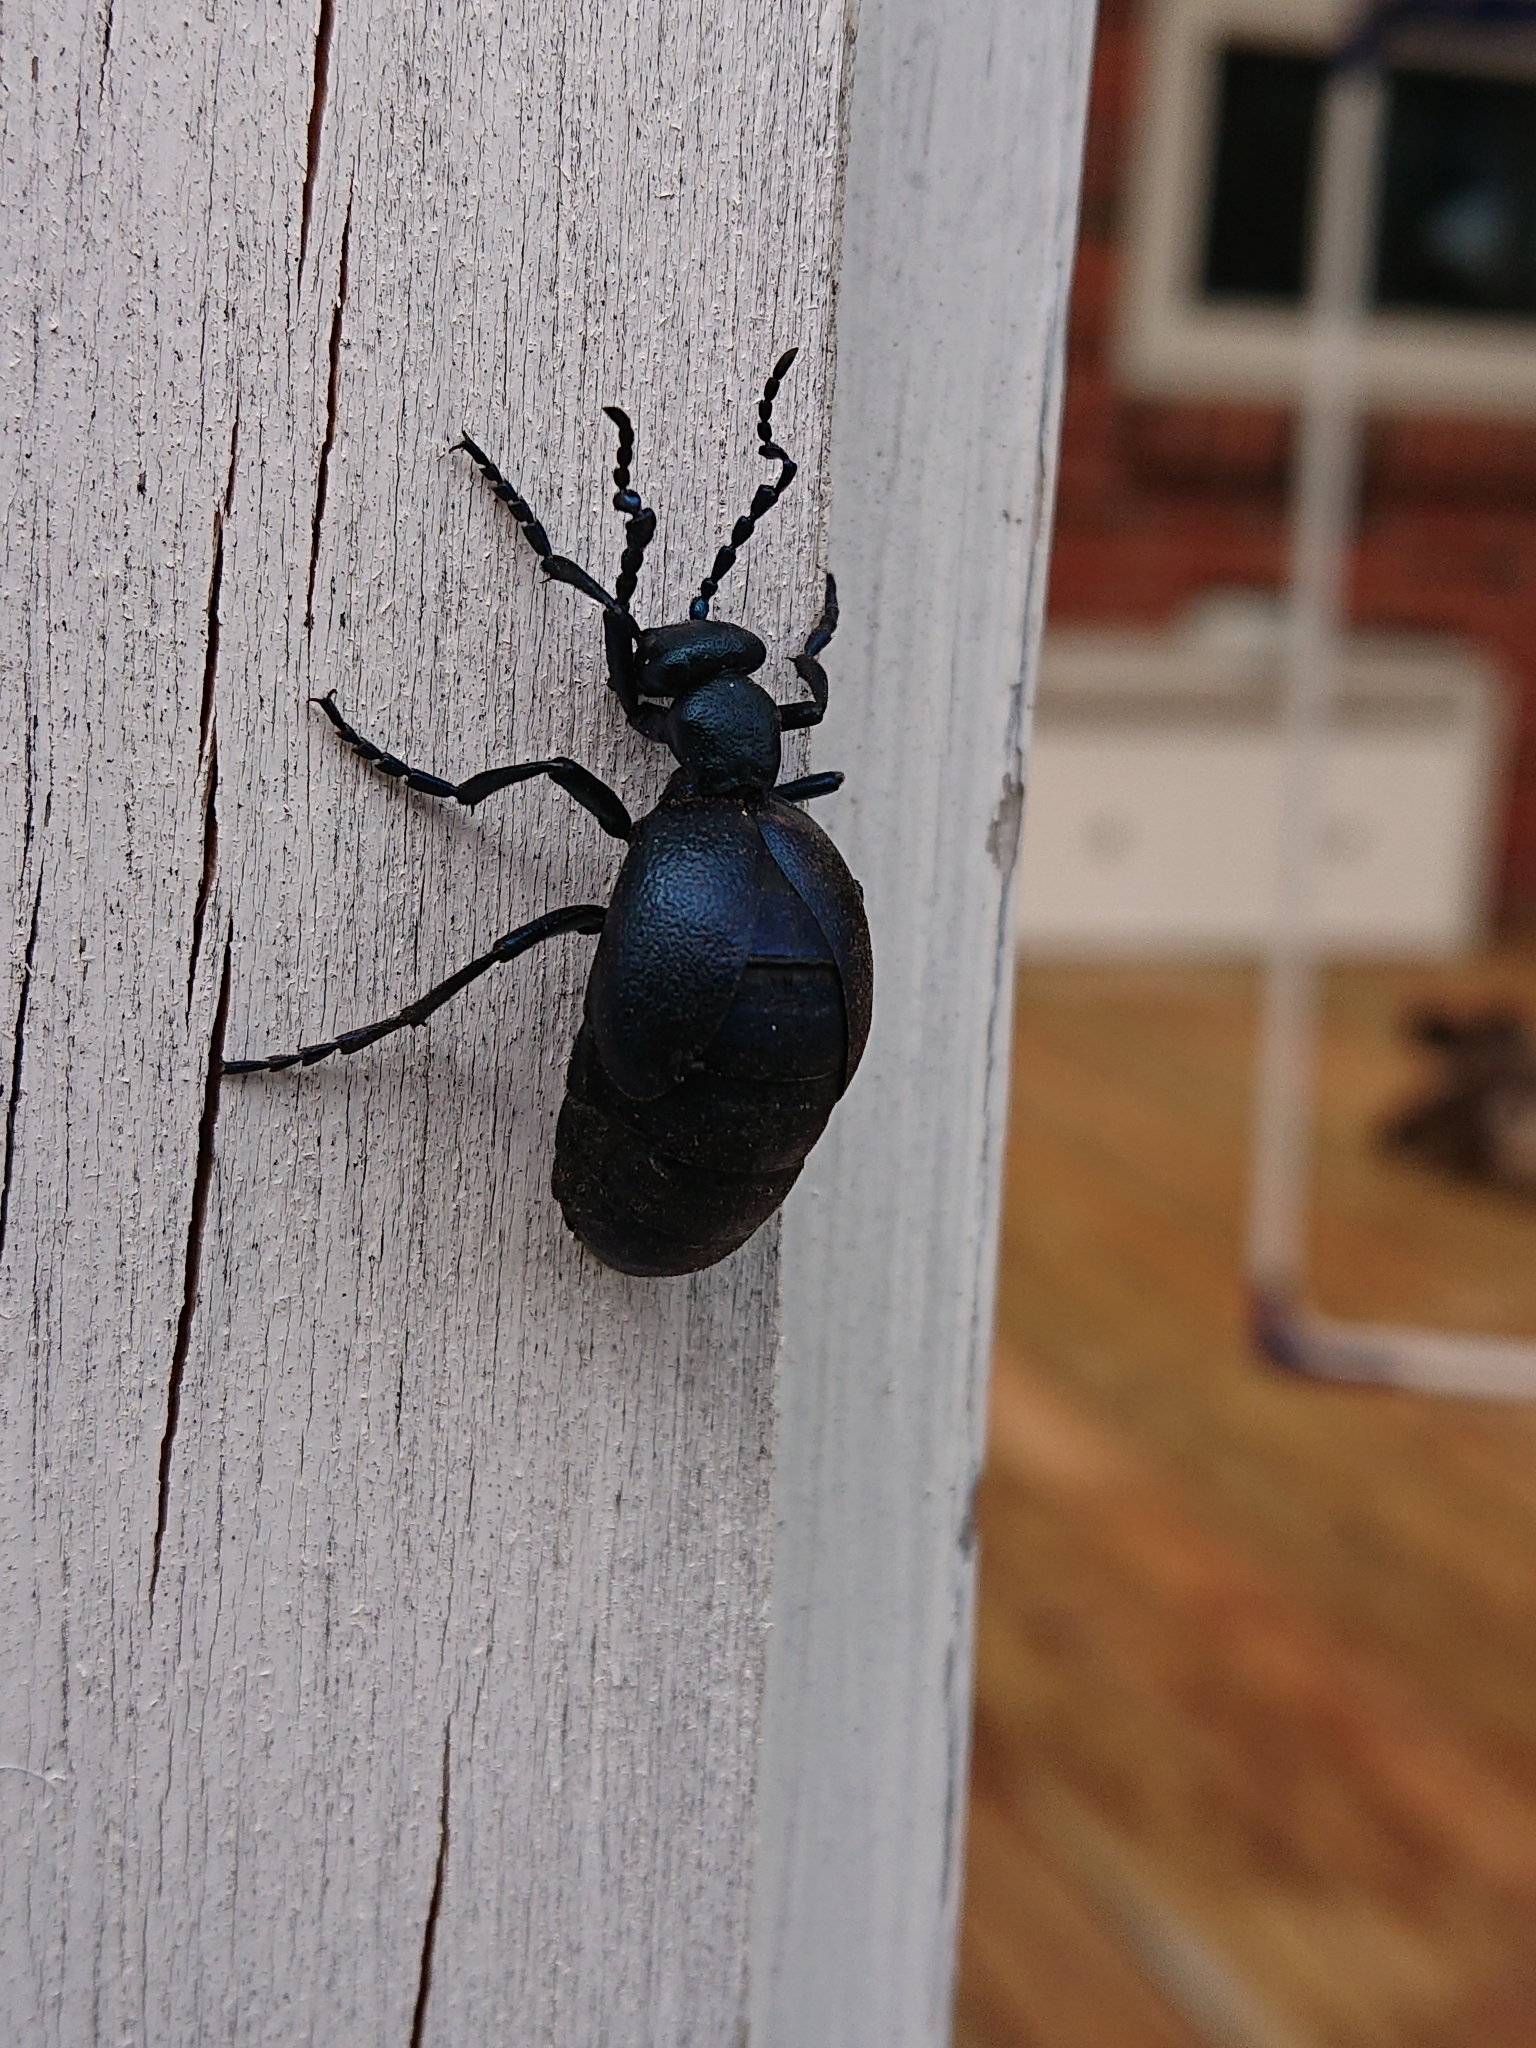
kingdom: Animalia
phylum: Arthropoda
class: Insecta
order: Coleoptera
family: Meloidae
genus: Meloe
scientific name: Meloe violaceus
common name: Violet oil-beetle
